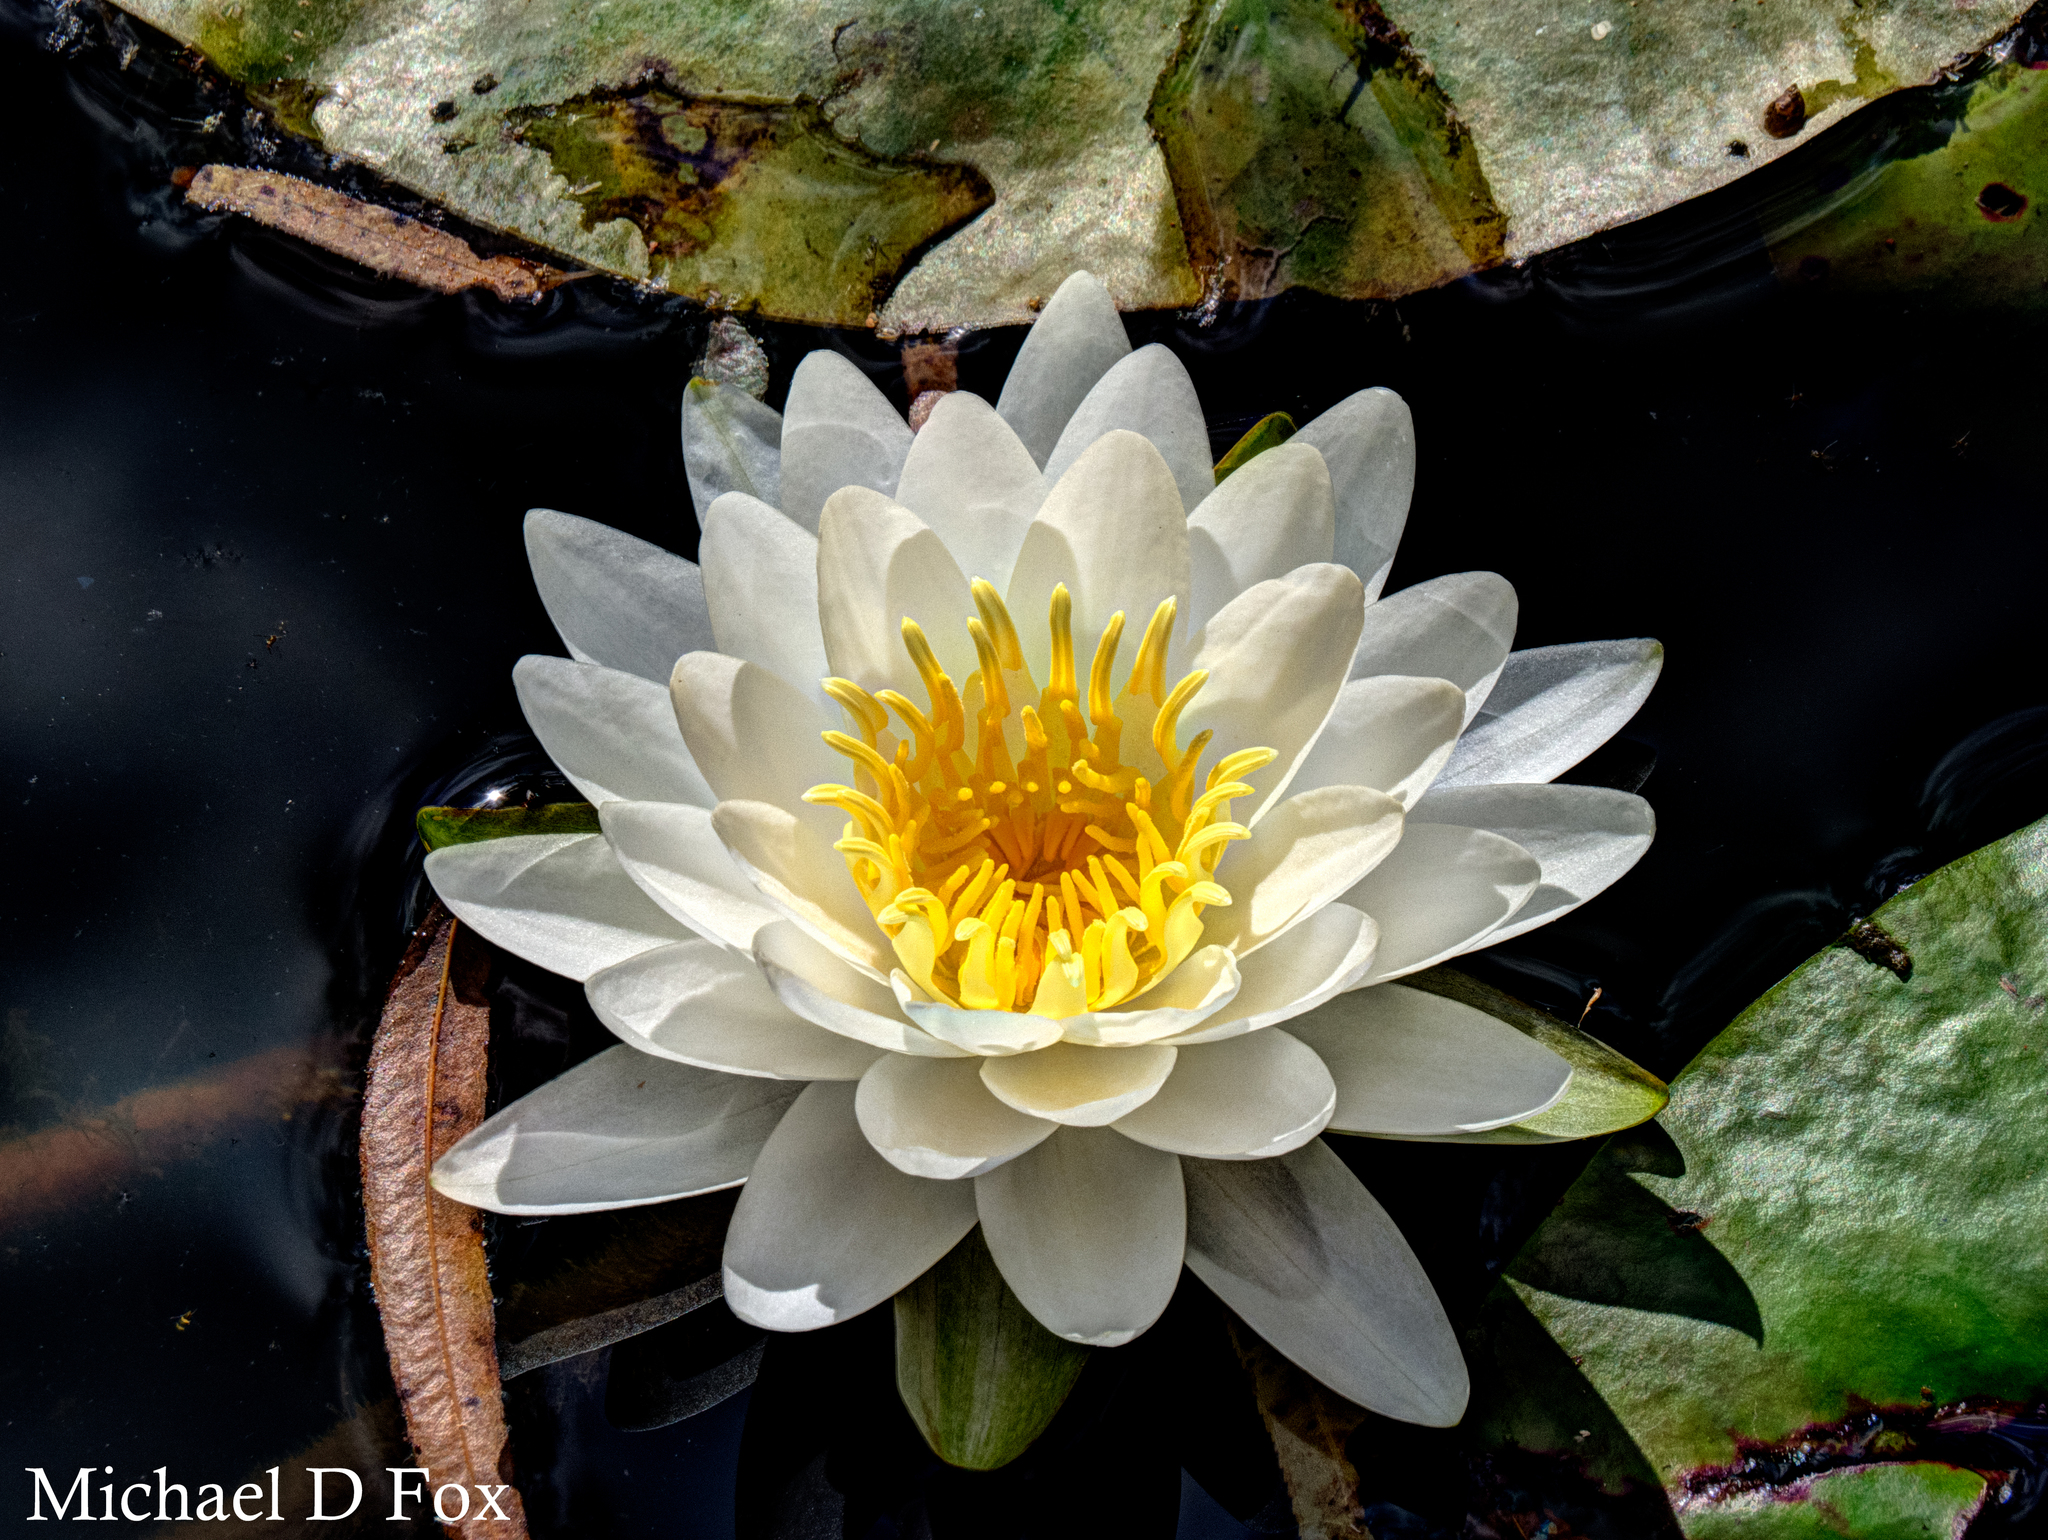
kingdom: Plantae
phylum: Tracheophyta
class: Magnoliopsida
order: Nymphaeales
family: Nymphaeaceae
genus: Nymphaea
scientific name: Nymphaea odorata
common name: Fragrant water-lily
